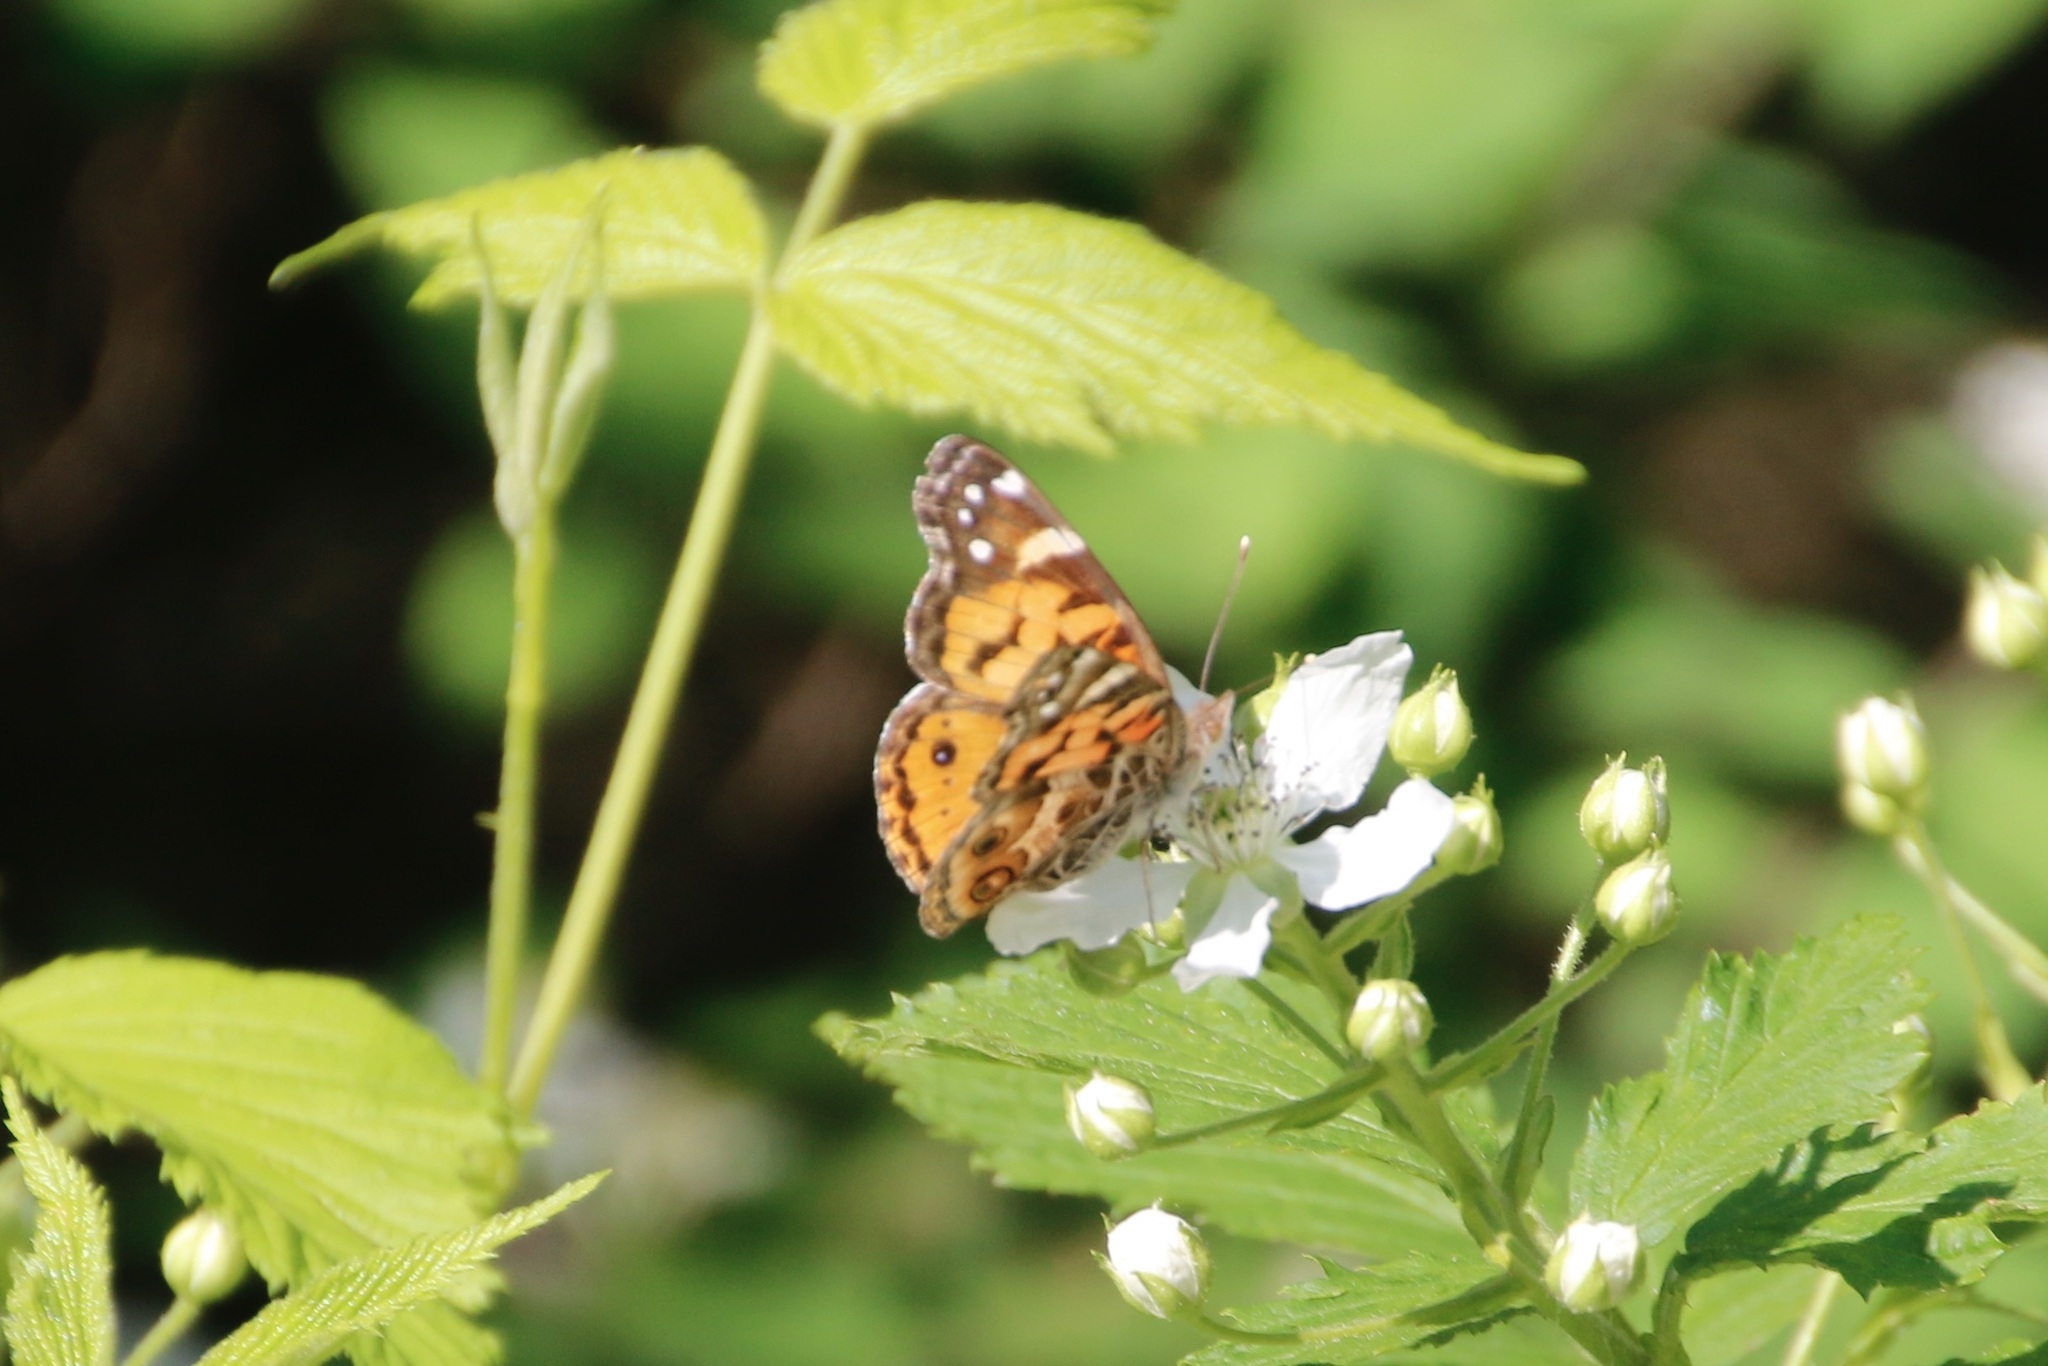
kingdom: Animalia
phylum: Arthropoda
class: Insecta
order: Lepidoptera
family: Nymphalidae
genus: Vanessa
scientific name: Vanessa virginiensis
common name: American lady
